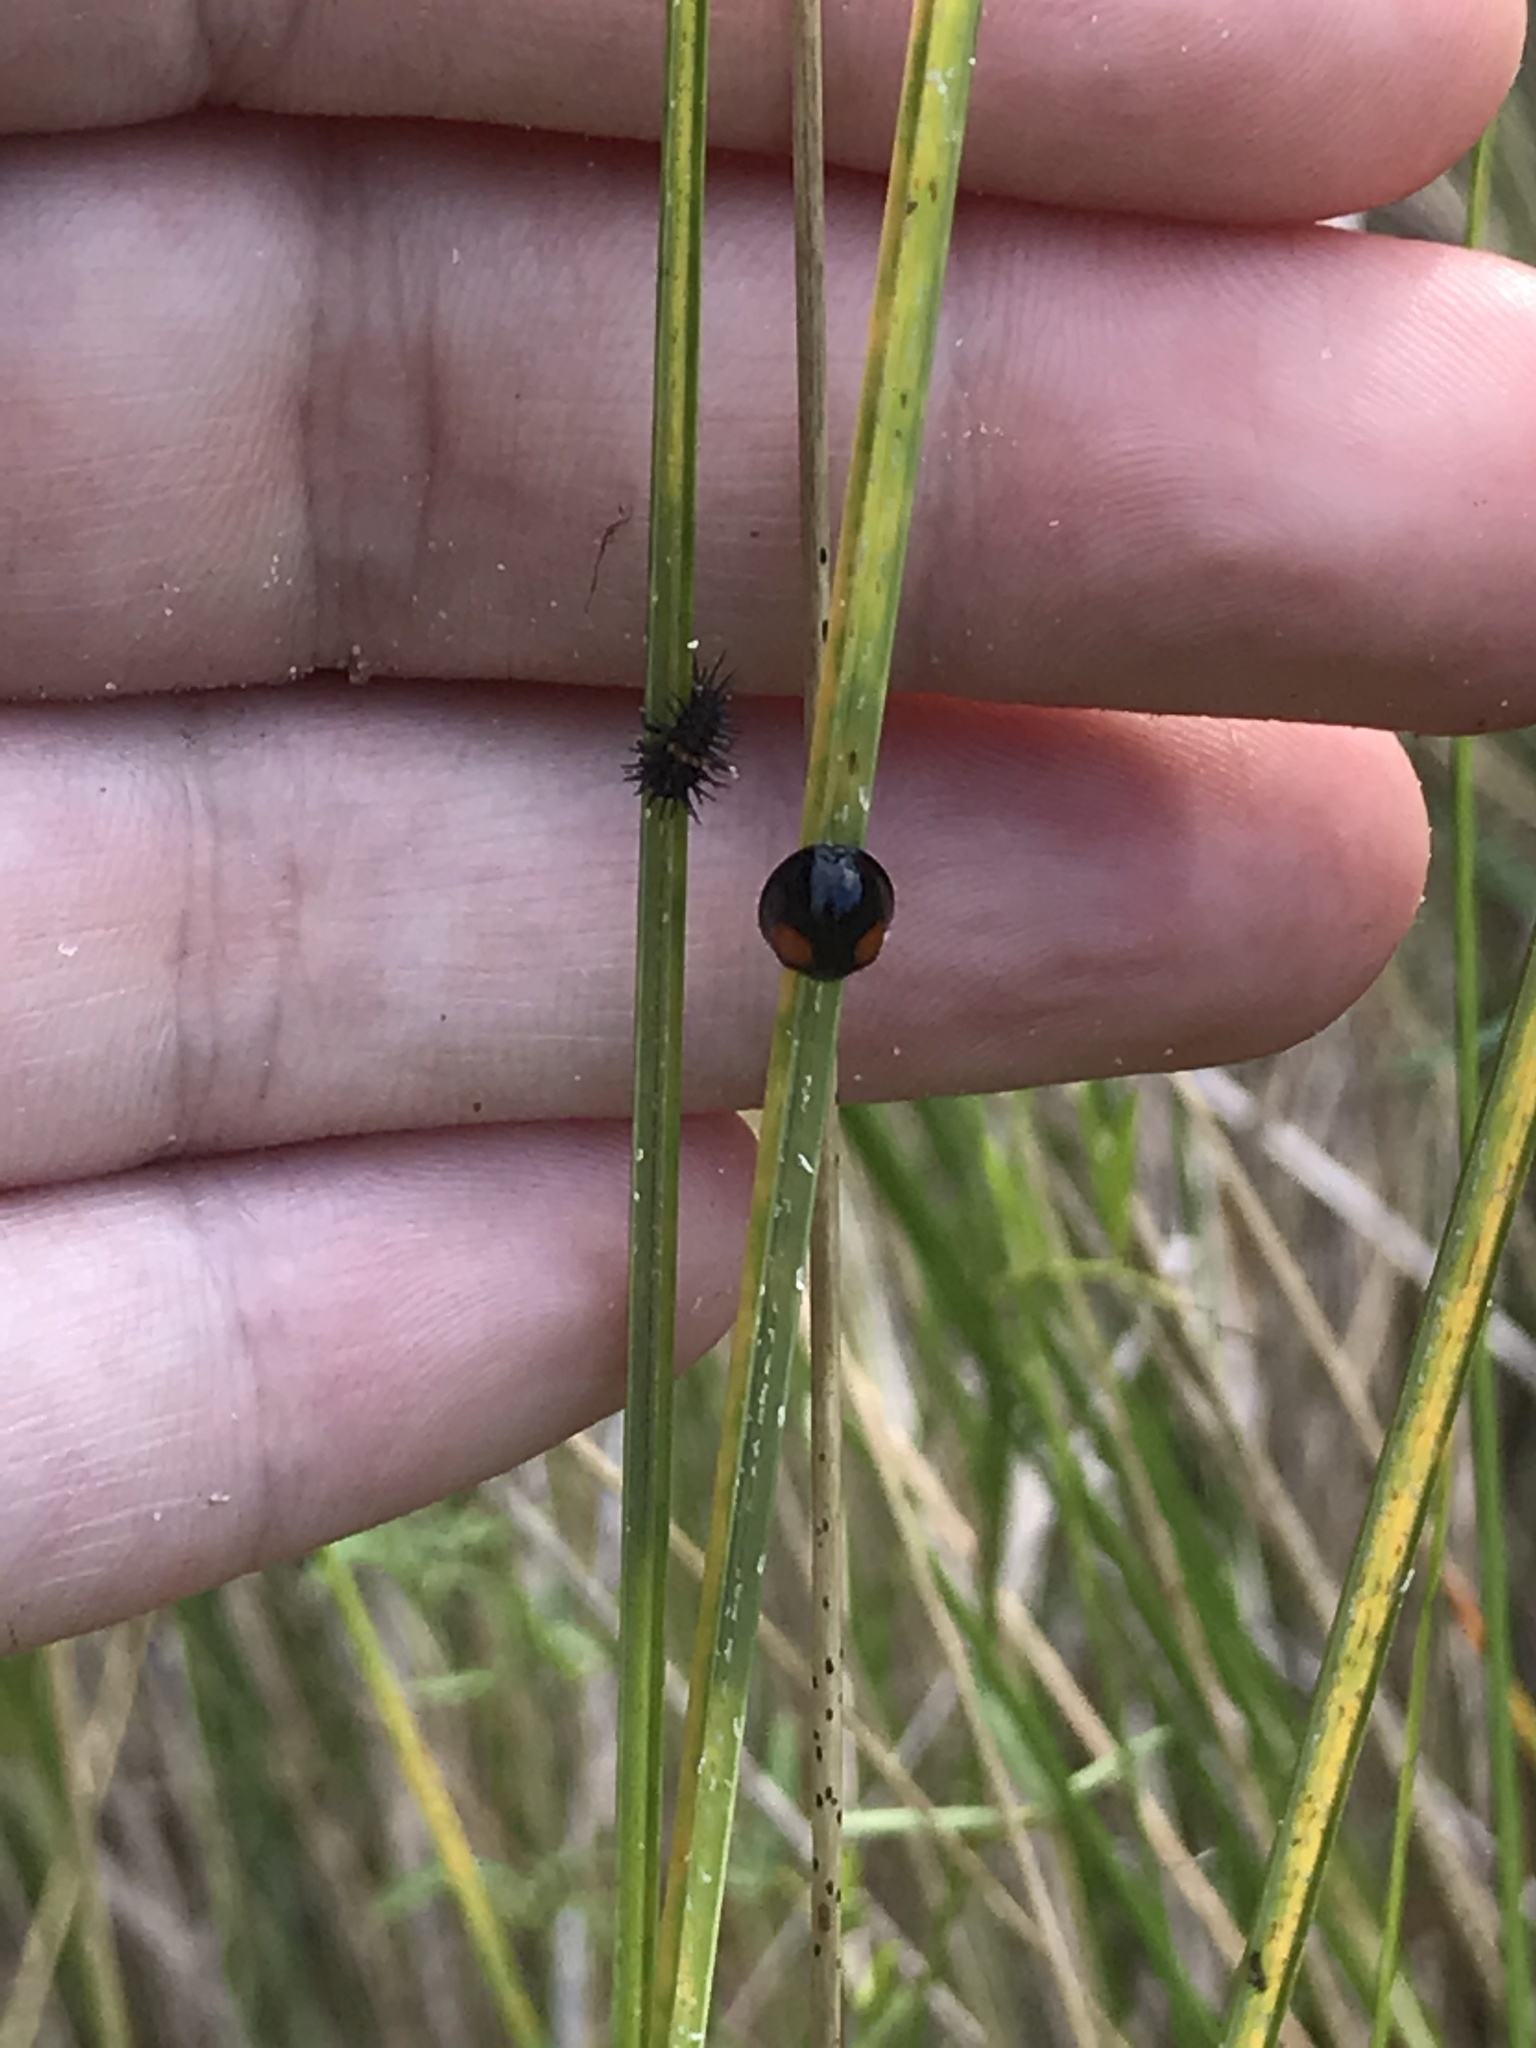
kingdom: Animalia
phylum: Arthropoda
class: Insecta
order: Coleoptera
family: Coccinellidae
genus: Chilocorus
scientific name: Chilocorus cacti
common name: Cactus lady beetle
